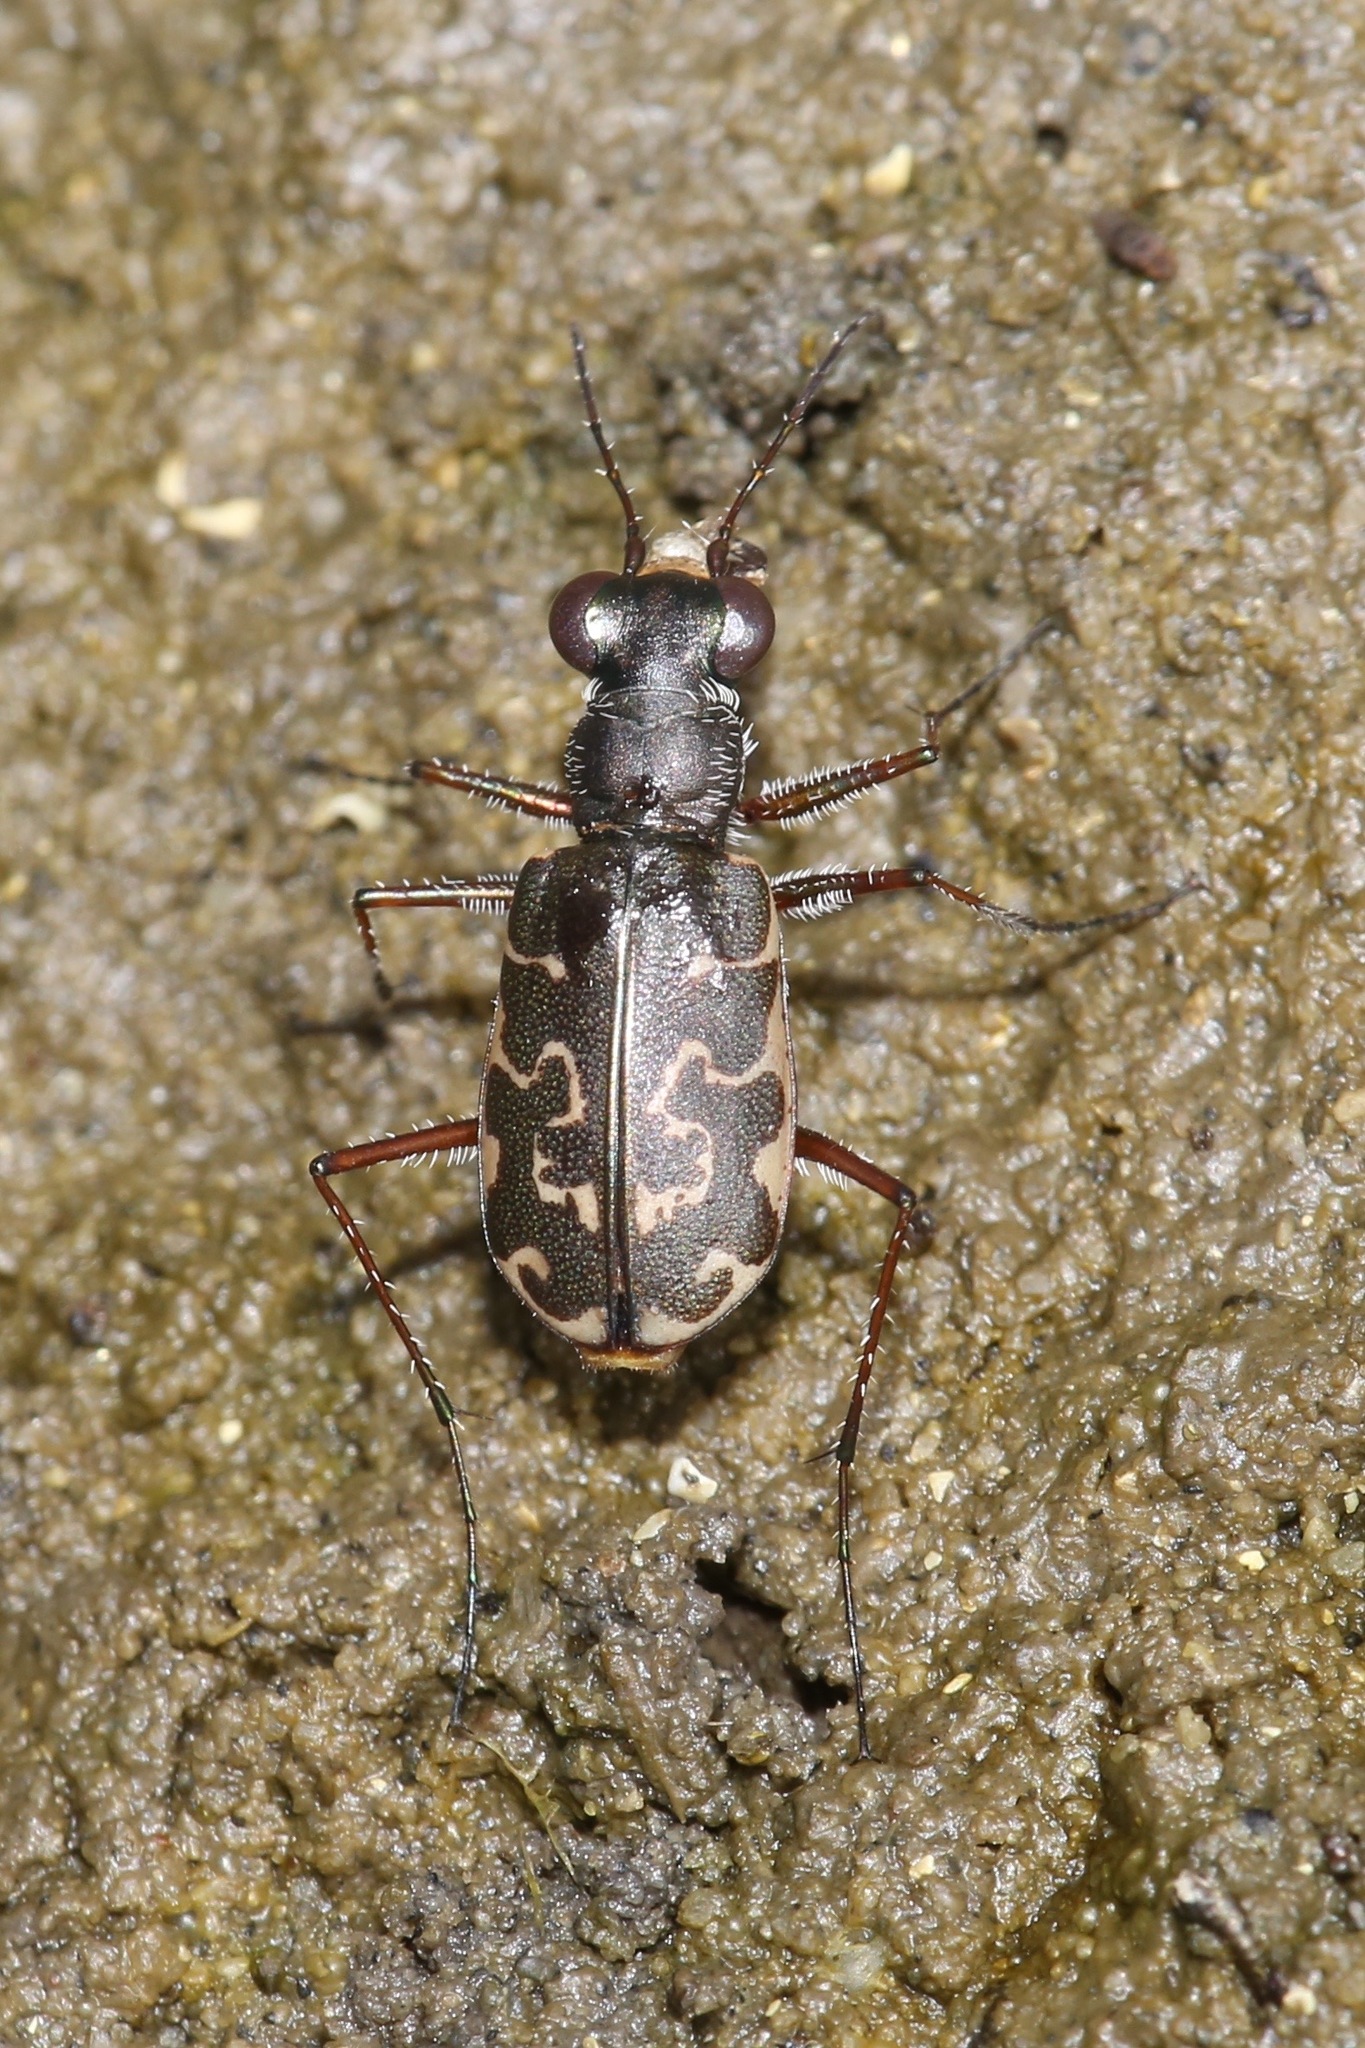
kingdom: Animalia
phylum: Arthropoda
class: Insecta
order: Coleoptera
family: Carabidae
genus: Cicindela
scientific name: Cicindela trifasciata
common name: Mudflat tiger beetle
